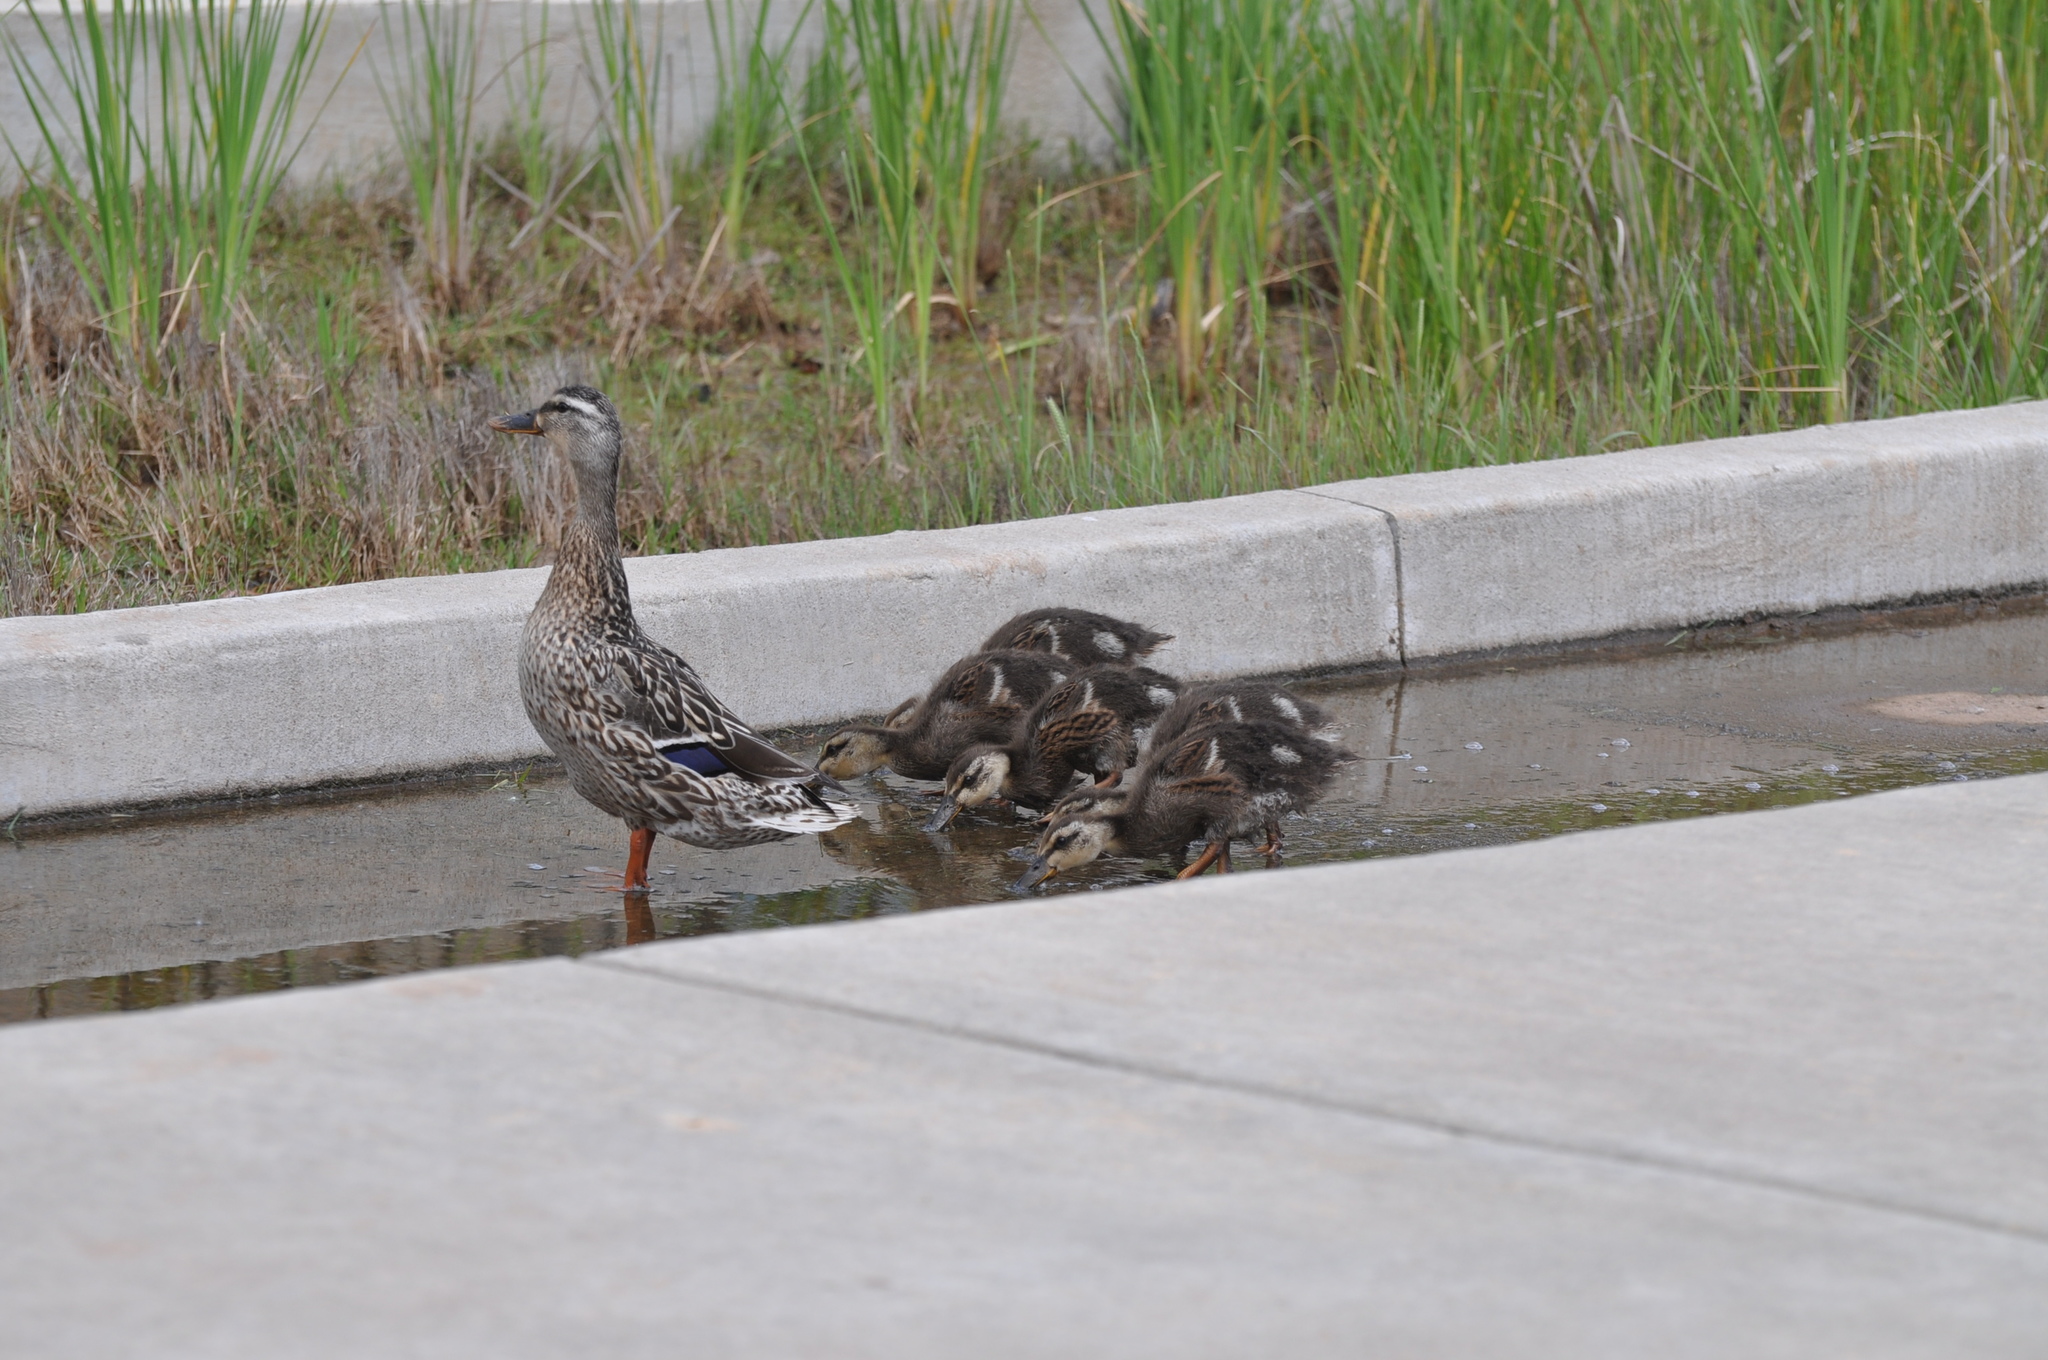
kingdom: Animalia
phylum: Chordata
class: Aves
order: Anseriformes
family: Anatidae
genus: Anas
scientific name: Anas platyrhynchos
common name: Mallard
